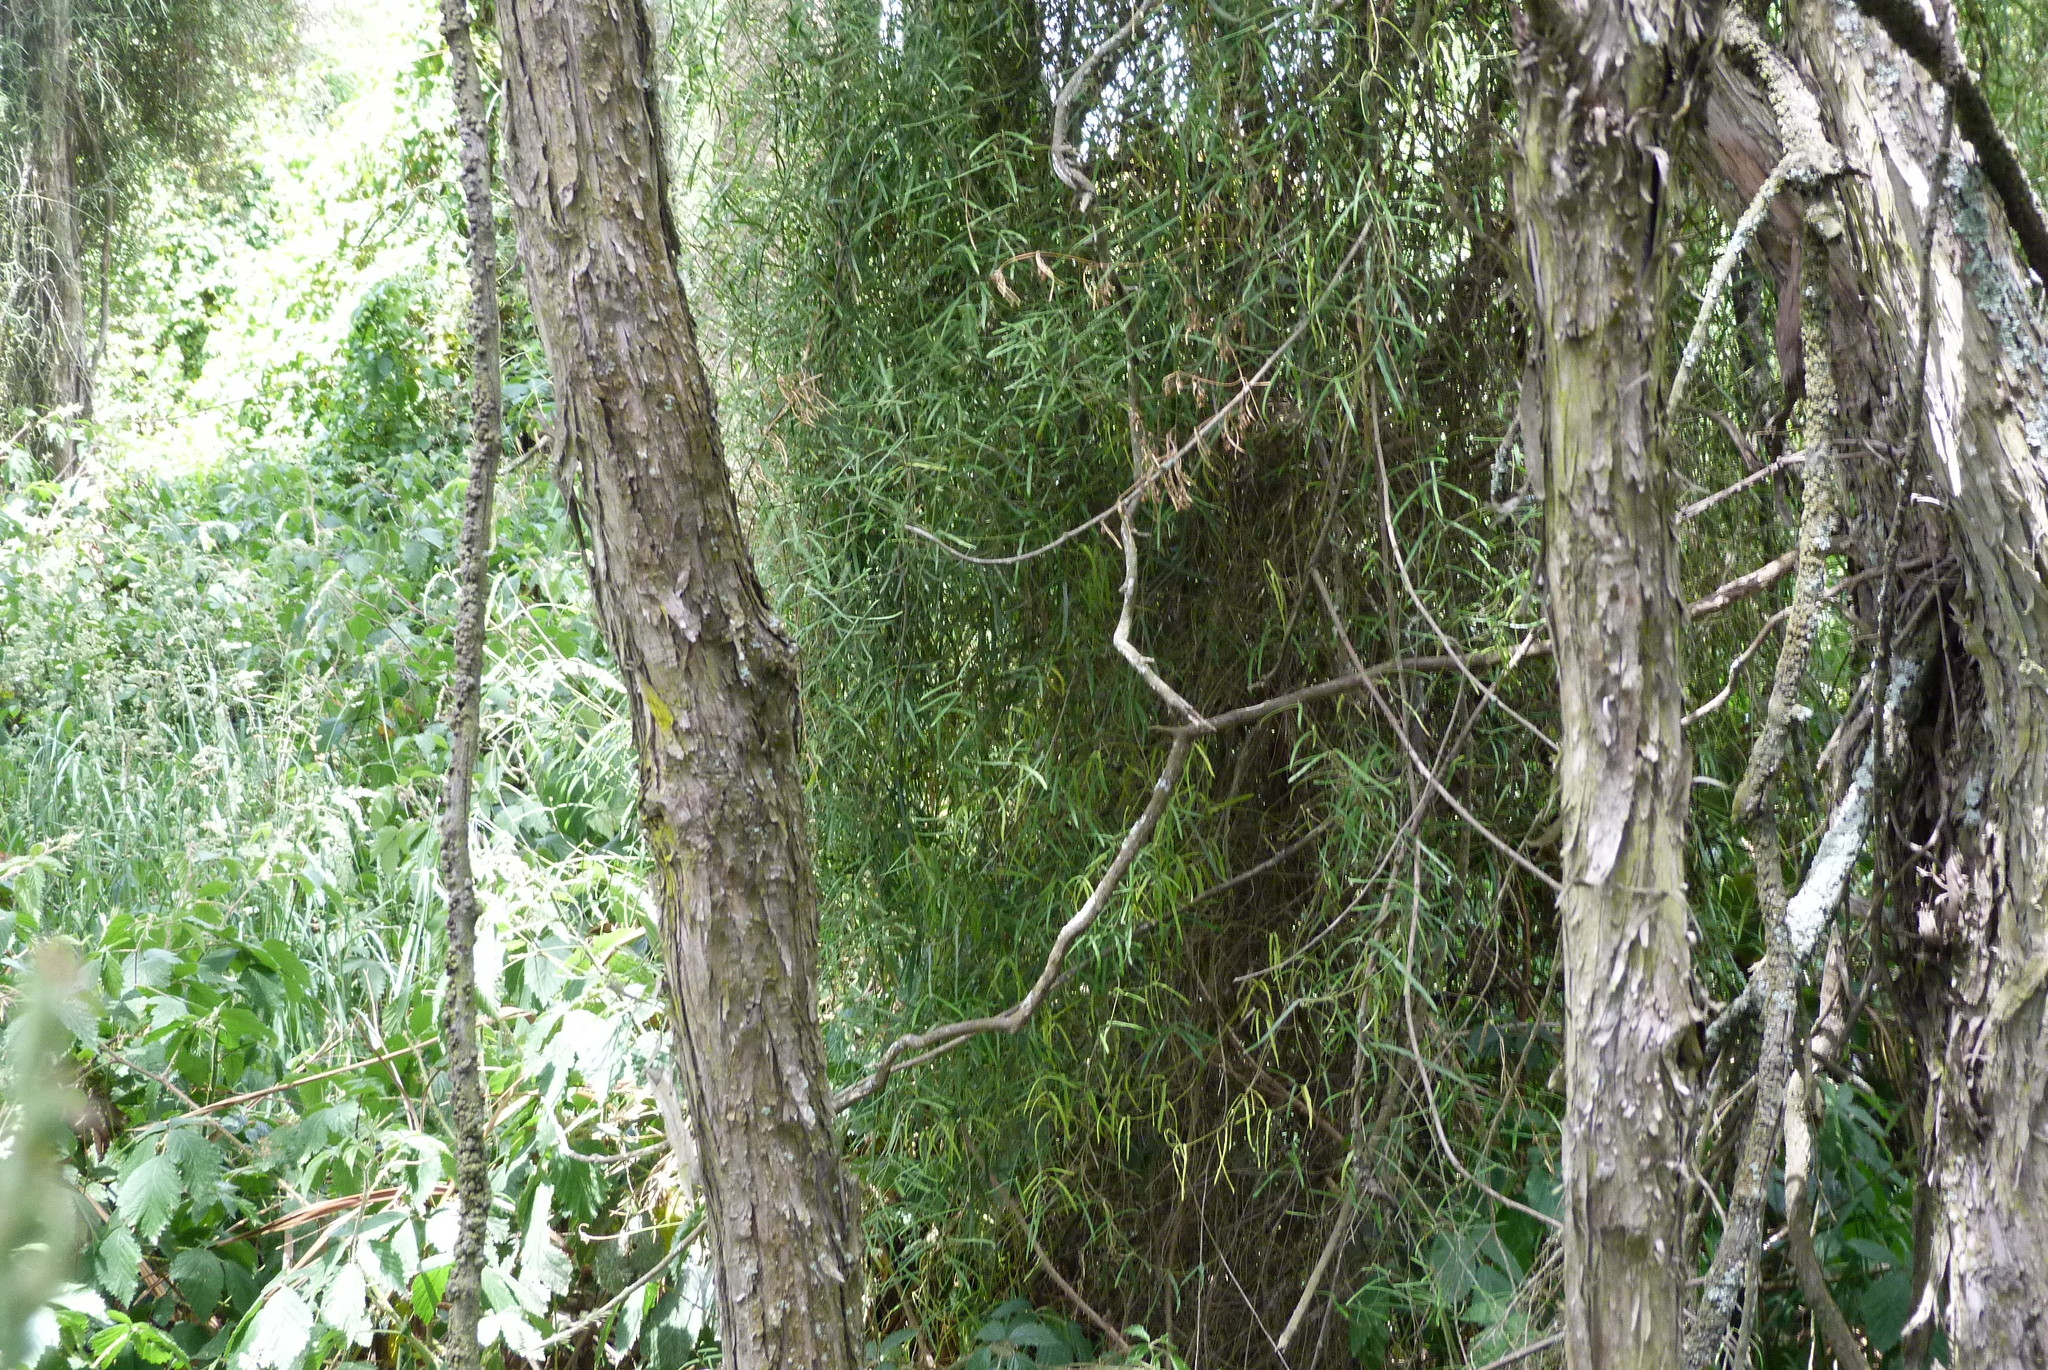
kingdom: Plantae
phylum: Tracheophyta
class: Magnoliopsida
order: Gentianales
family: Apocynaceae
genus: Parsonsia
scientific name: Parsonsia capsularis
